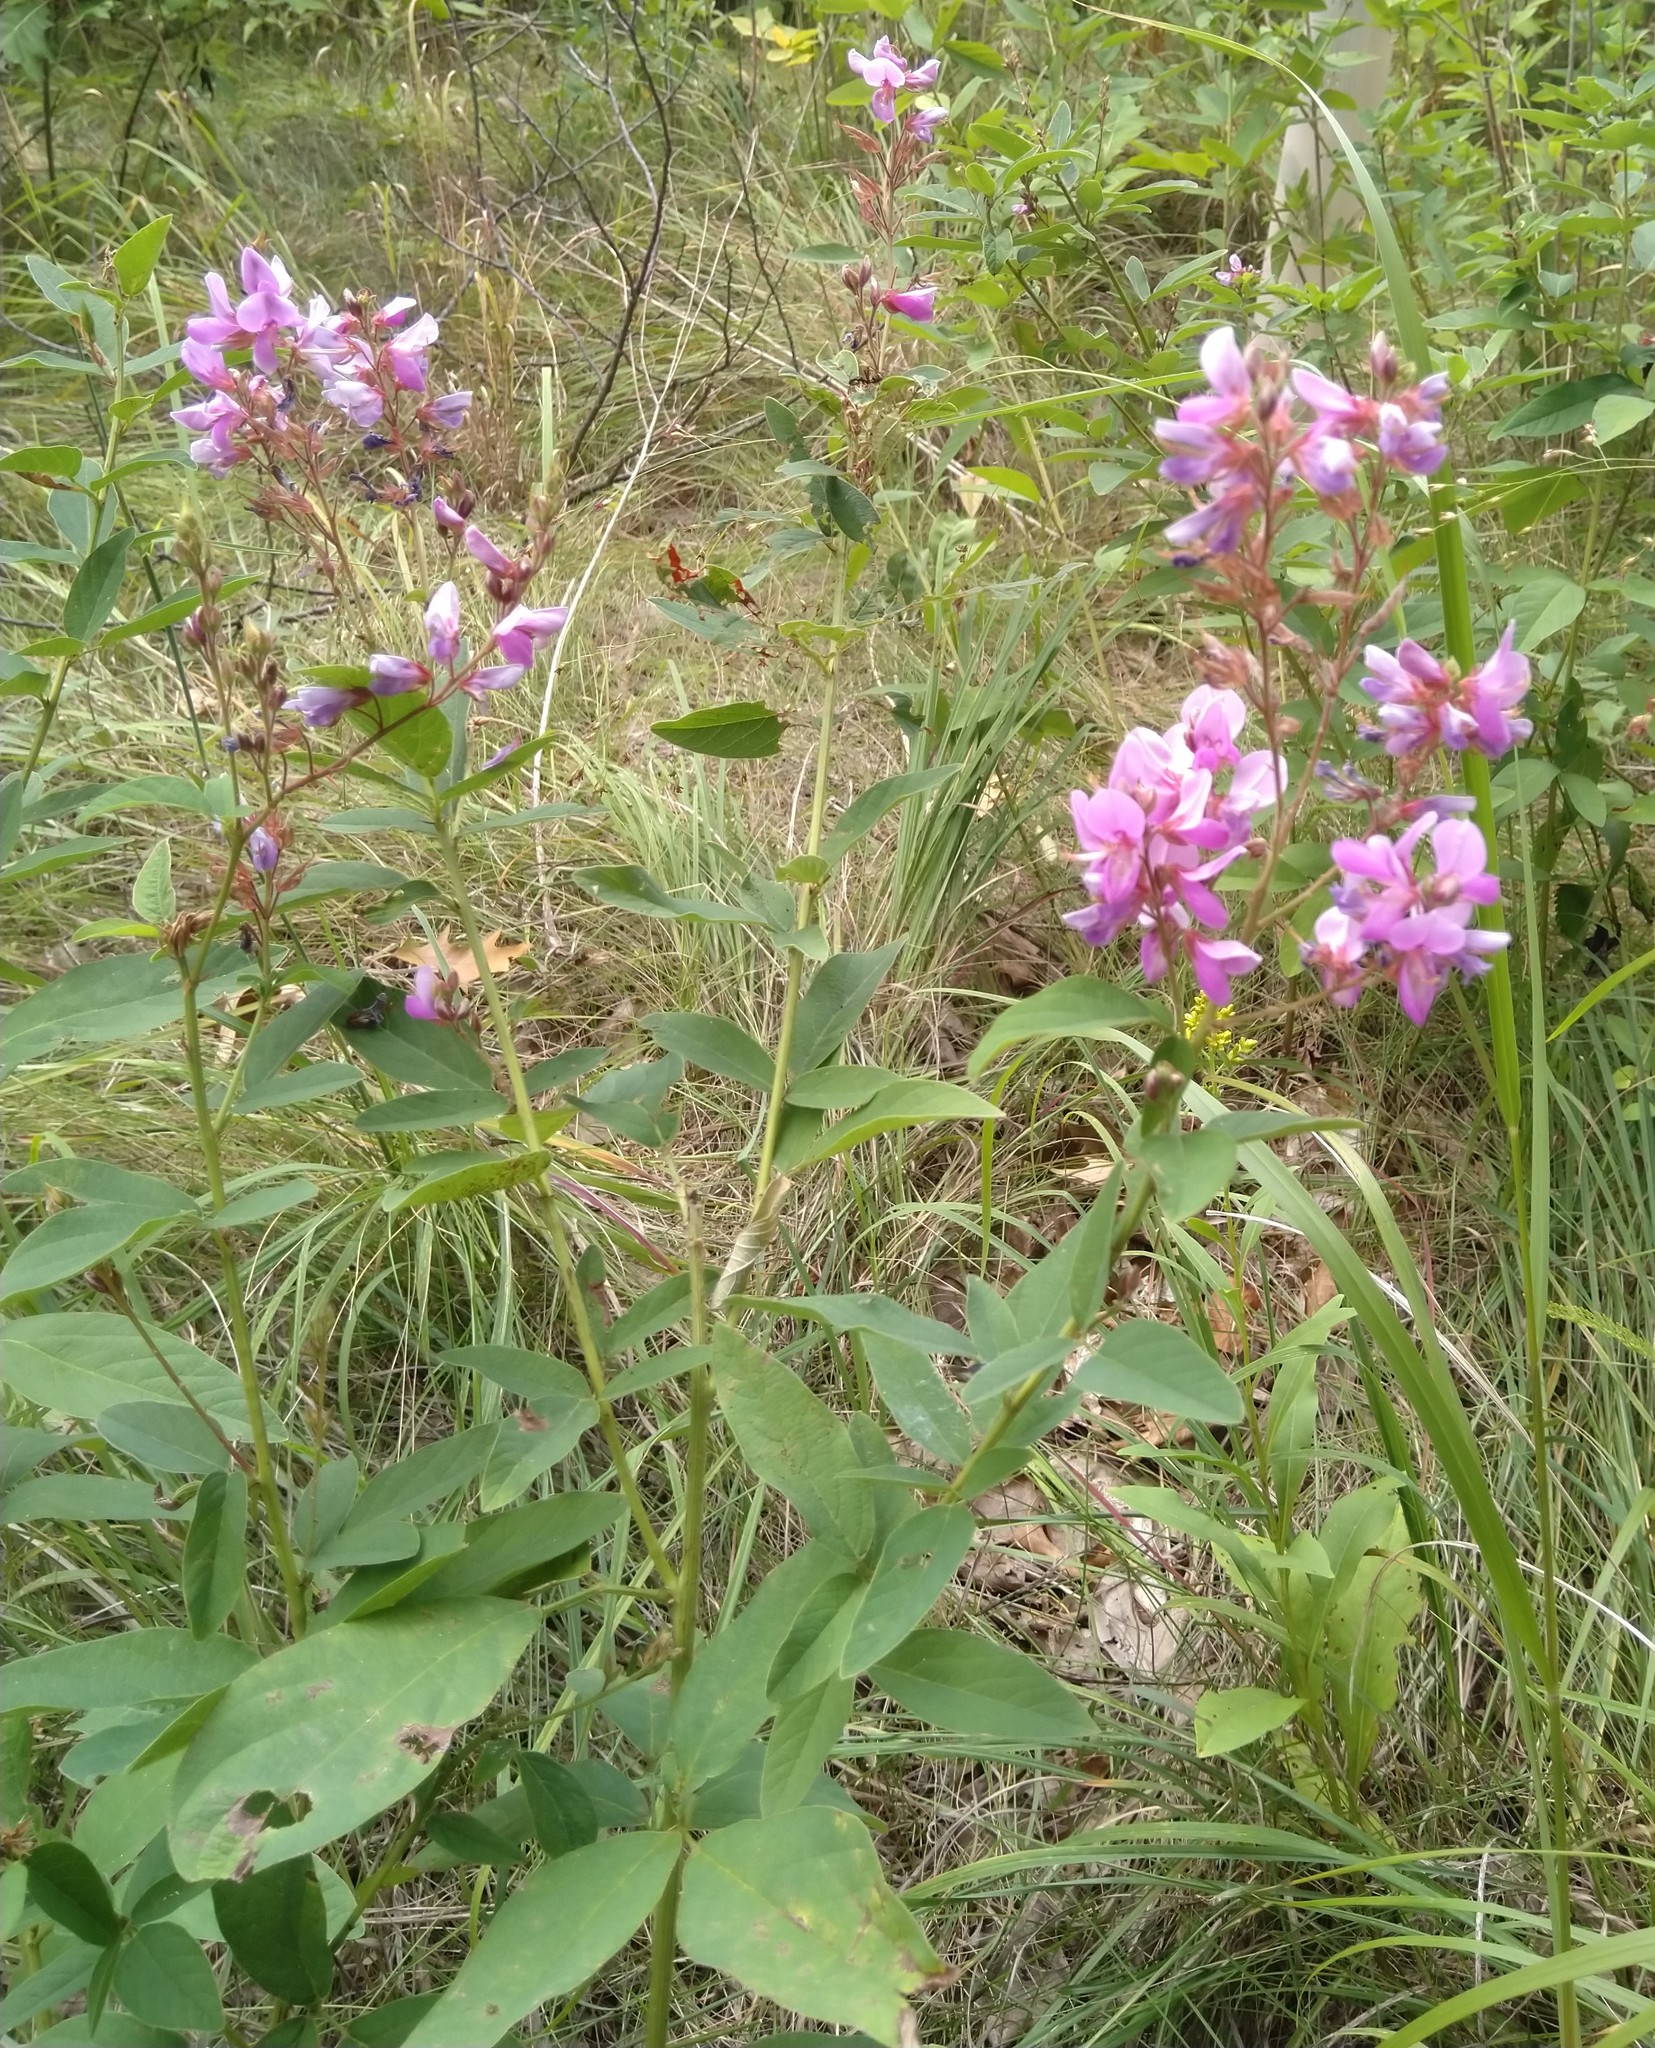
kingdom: Plantae
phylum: Tracheophyta
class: Magnoliopsida
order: Fabales
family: Fabaceae
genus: Desmodium
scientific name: Desmodium canadense
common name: Canada tick-trefoil
